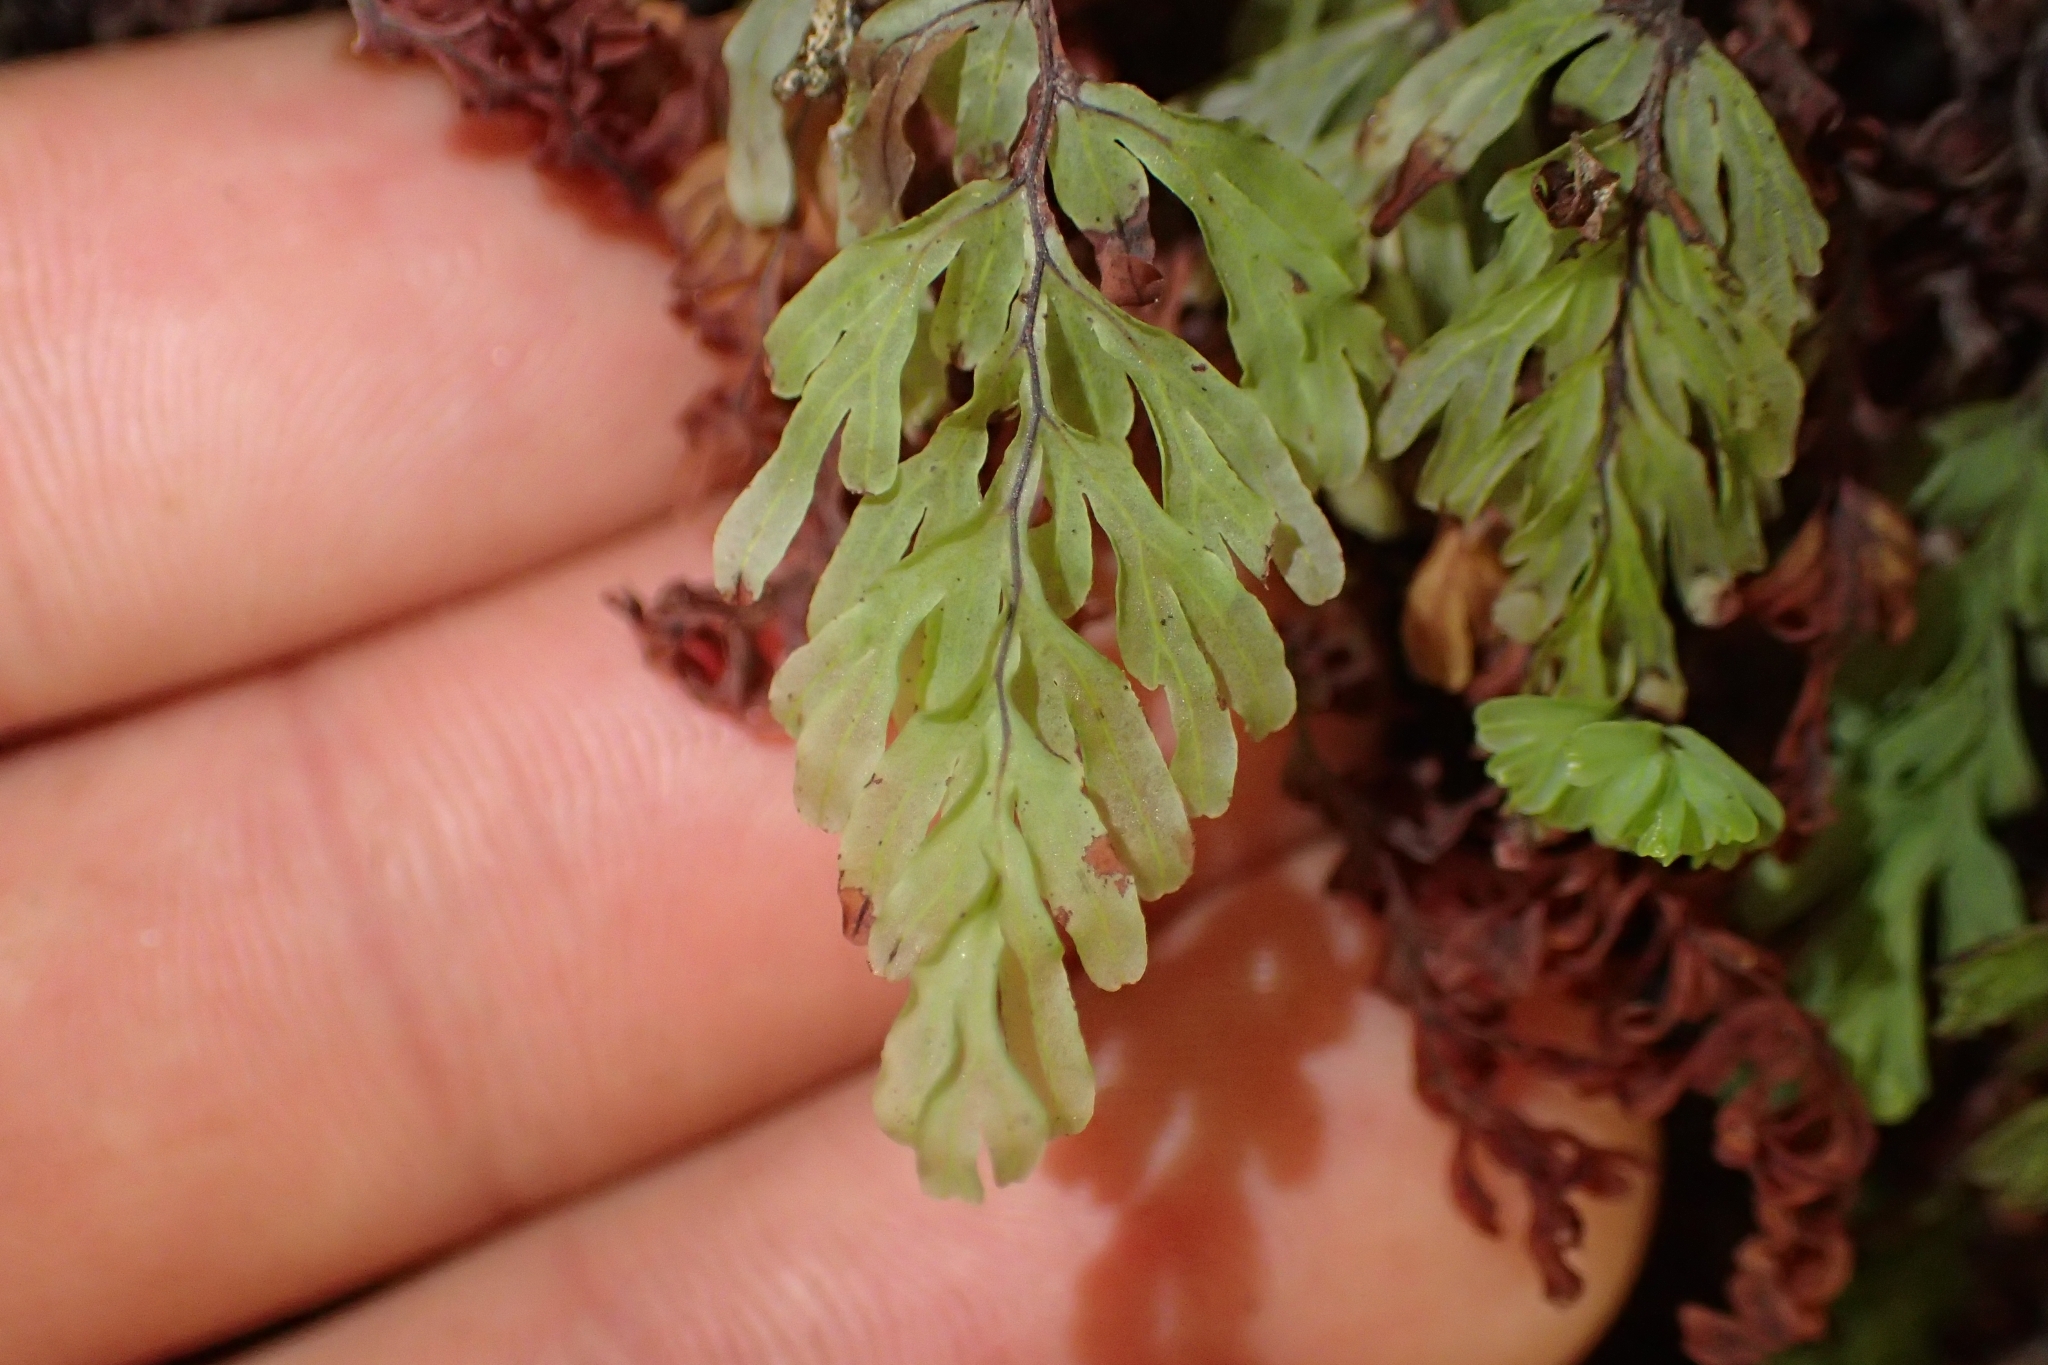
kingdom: Plantae
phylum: Tracheophyta
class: Polypodiopsida
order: Hymenophyllales
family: Hymenophyllaceae
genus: Hymenophyllum
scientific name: Hymenophyllum rarum
